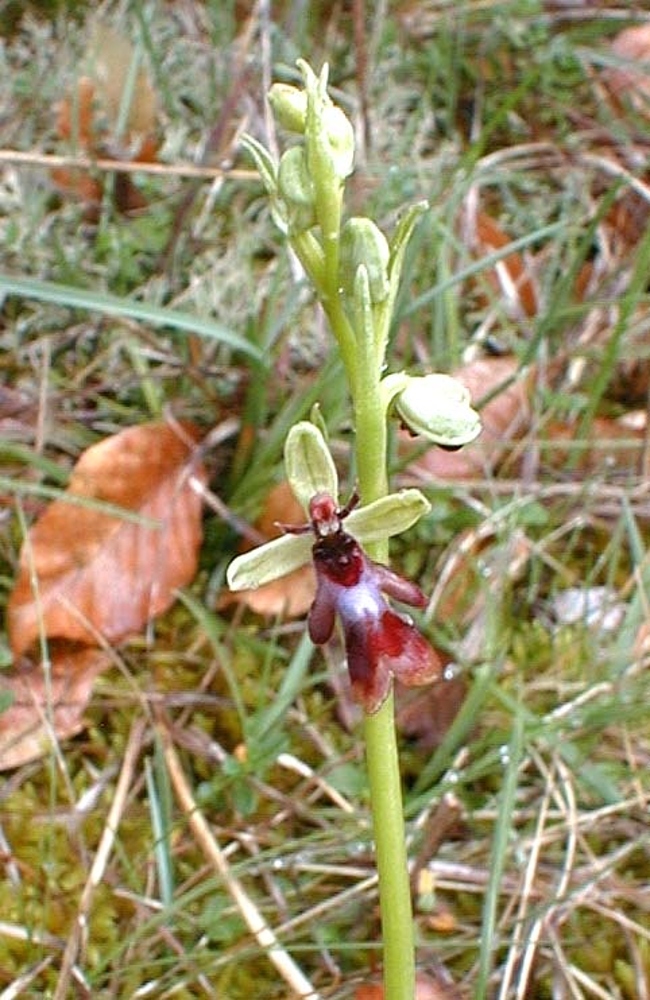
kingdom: Plantae
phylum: Tracheophyta
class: Liliopsida
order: Asparagales
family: Orchidaceae
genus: Ophrys
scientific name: Ophrys insectifera
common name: Fly orchid
